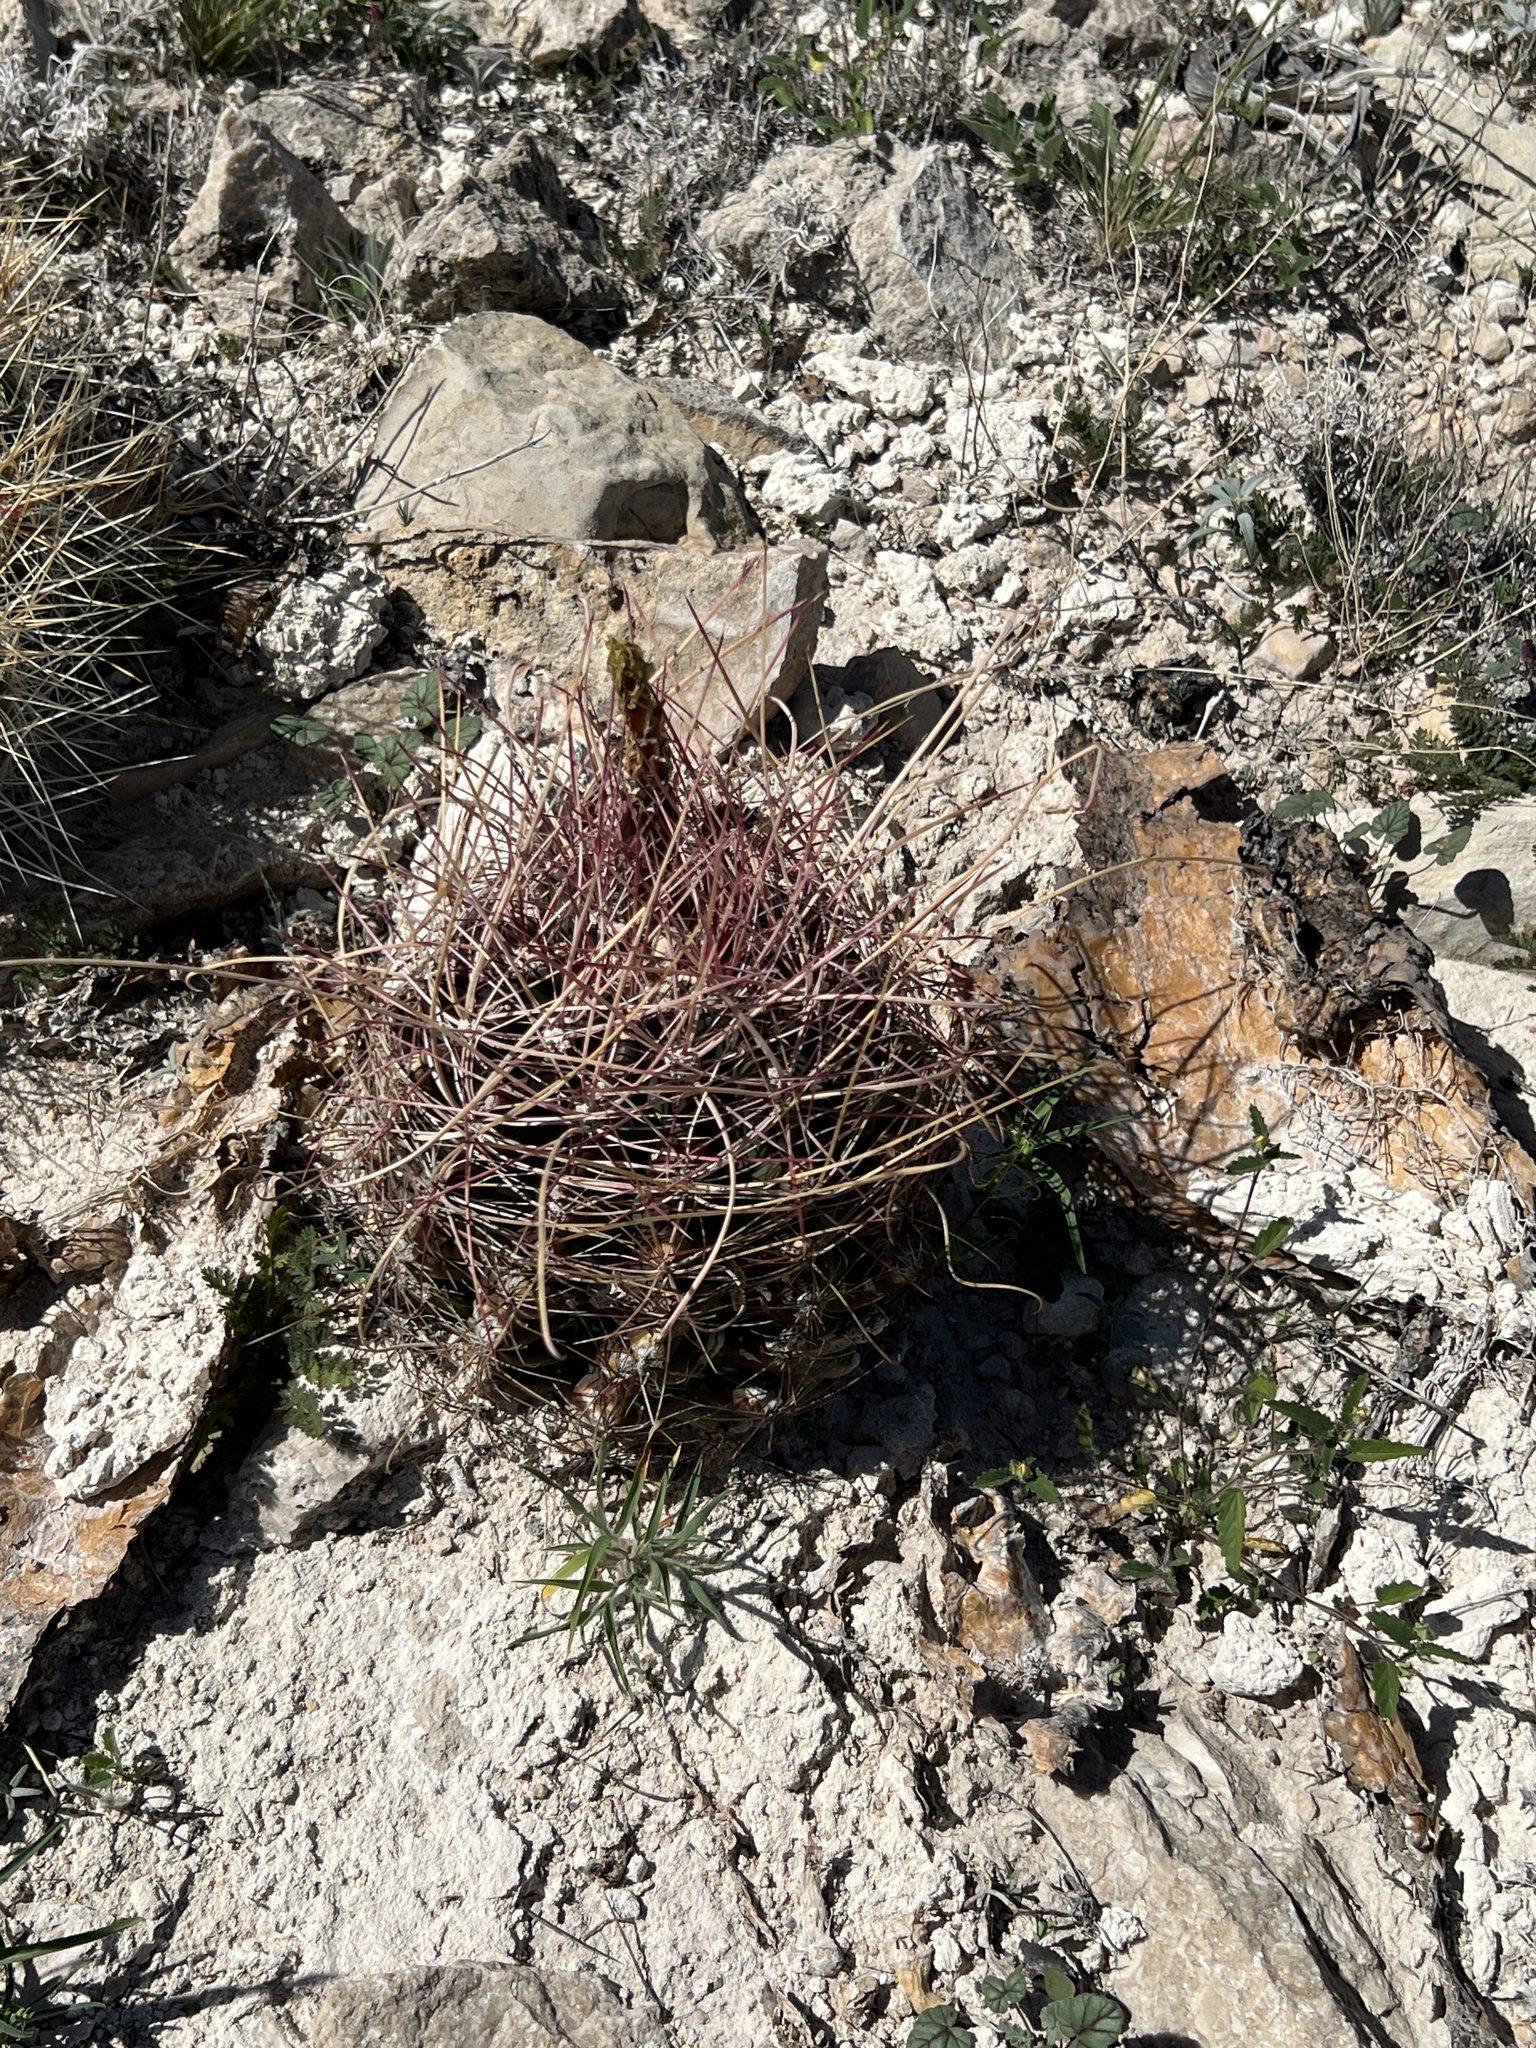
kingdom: Plantae
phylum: Tracheophyta
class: Magnoliopsida
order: Caryophyllales
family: Cactaceae
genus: Bisnaga
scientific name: Bisnaga hamatacantha
